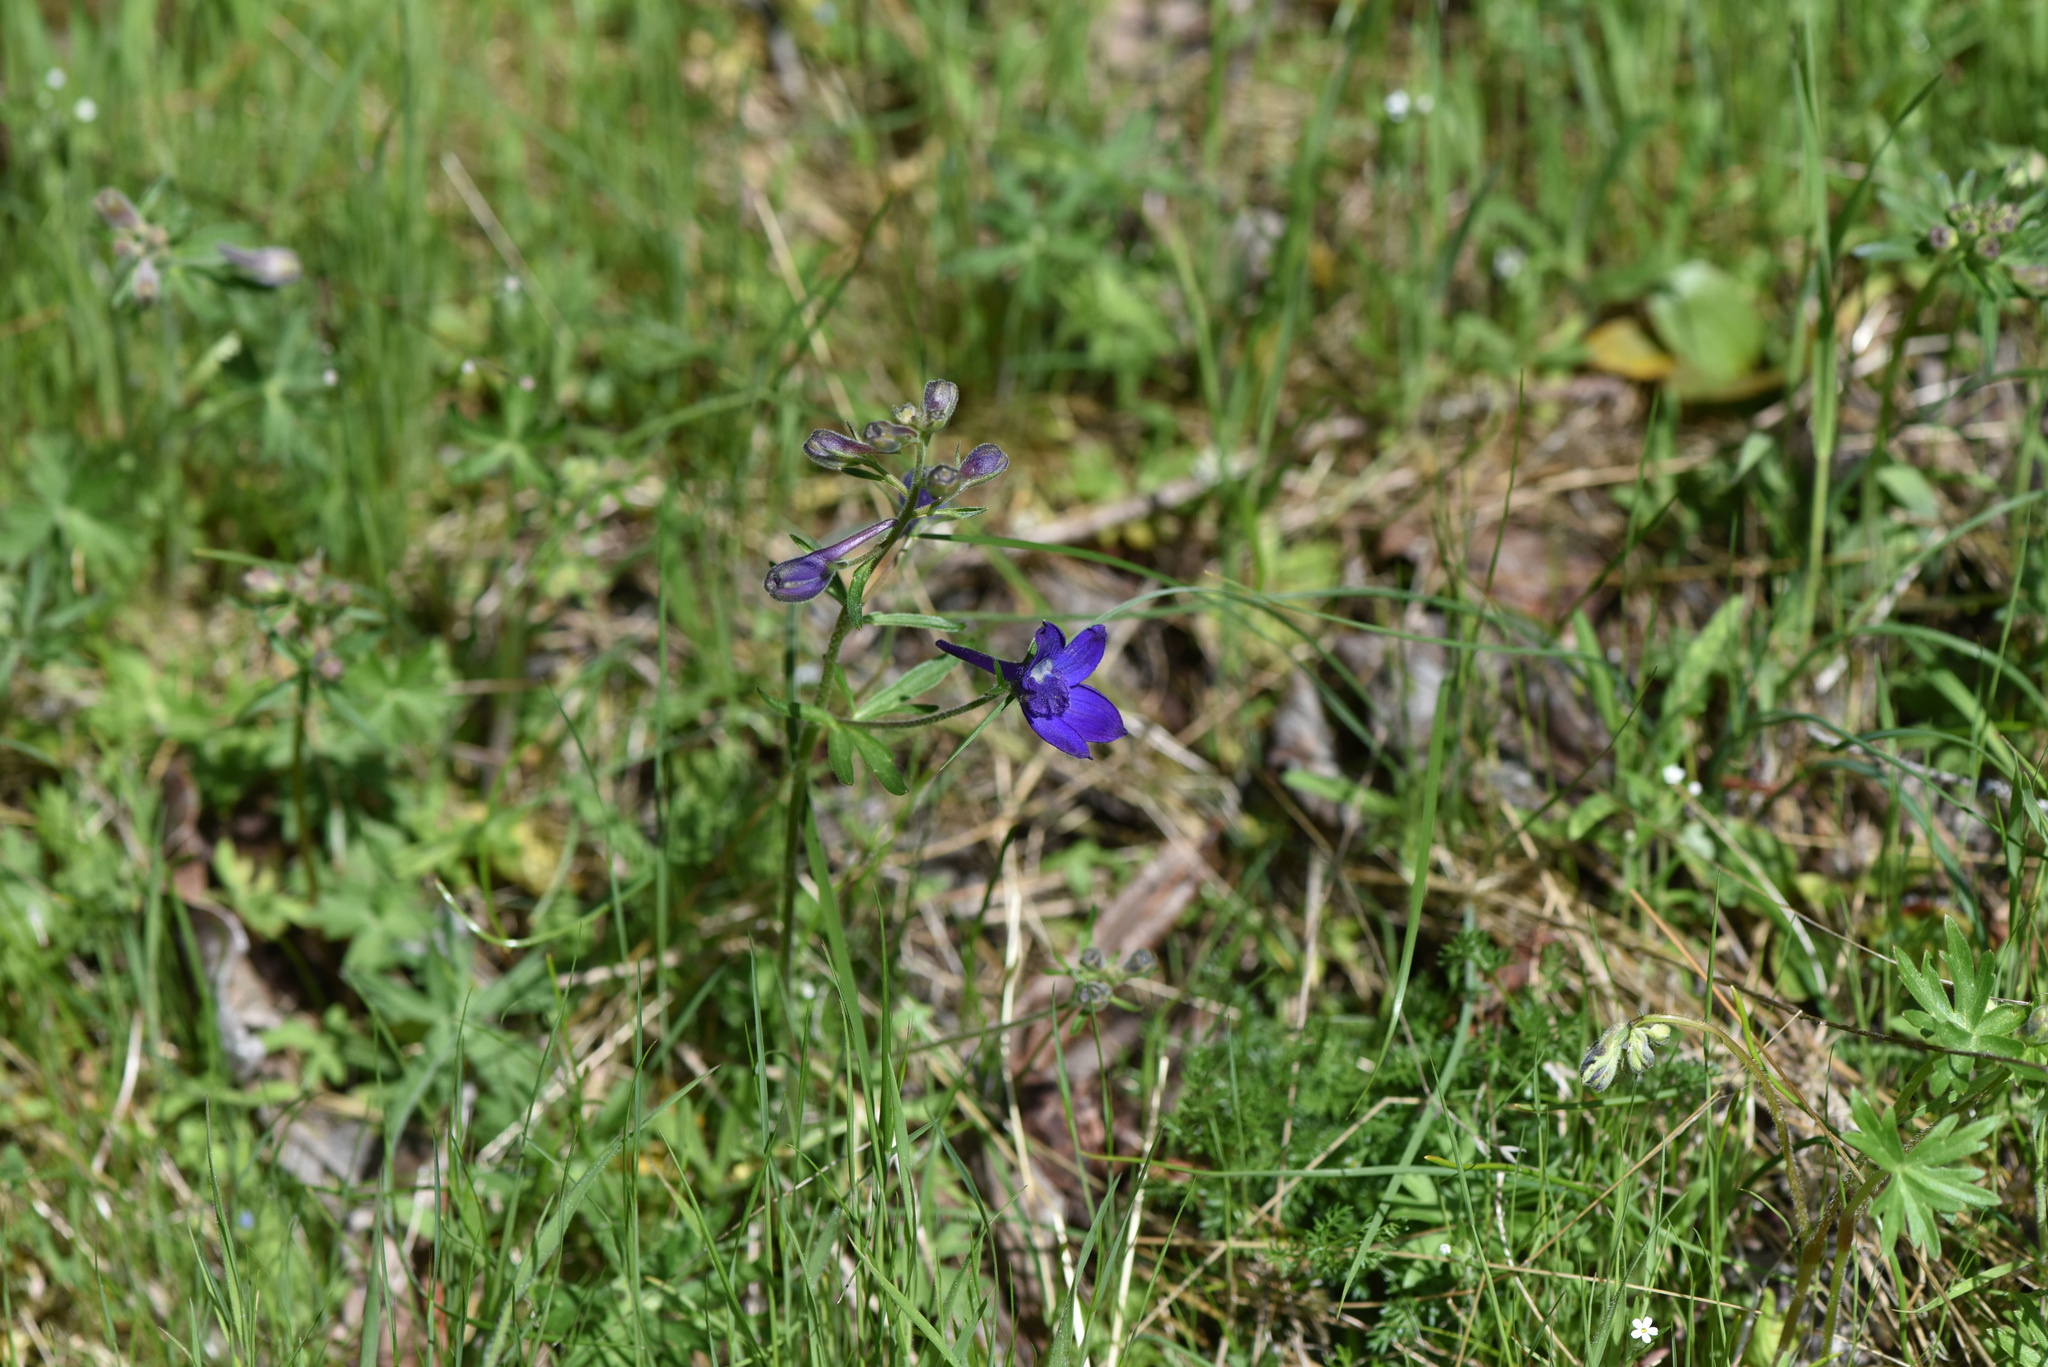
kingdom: Plantae
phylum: Tracheophyta
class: Magnoliopsida
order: Ranunculales
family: Ranunculaceae
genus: Delphinium
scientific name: Delphinium menziesii
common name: Menzies's larkspur
